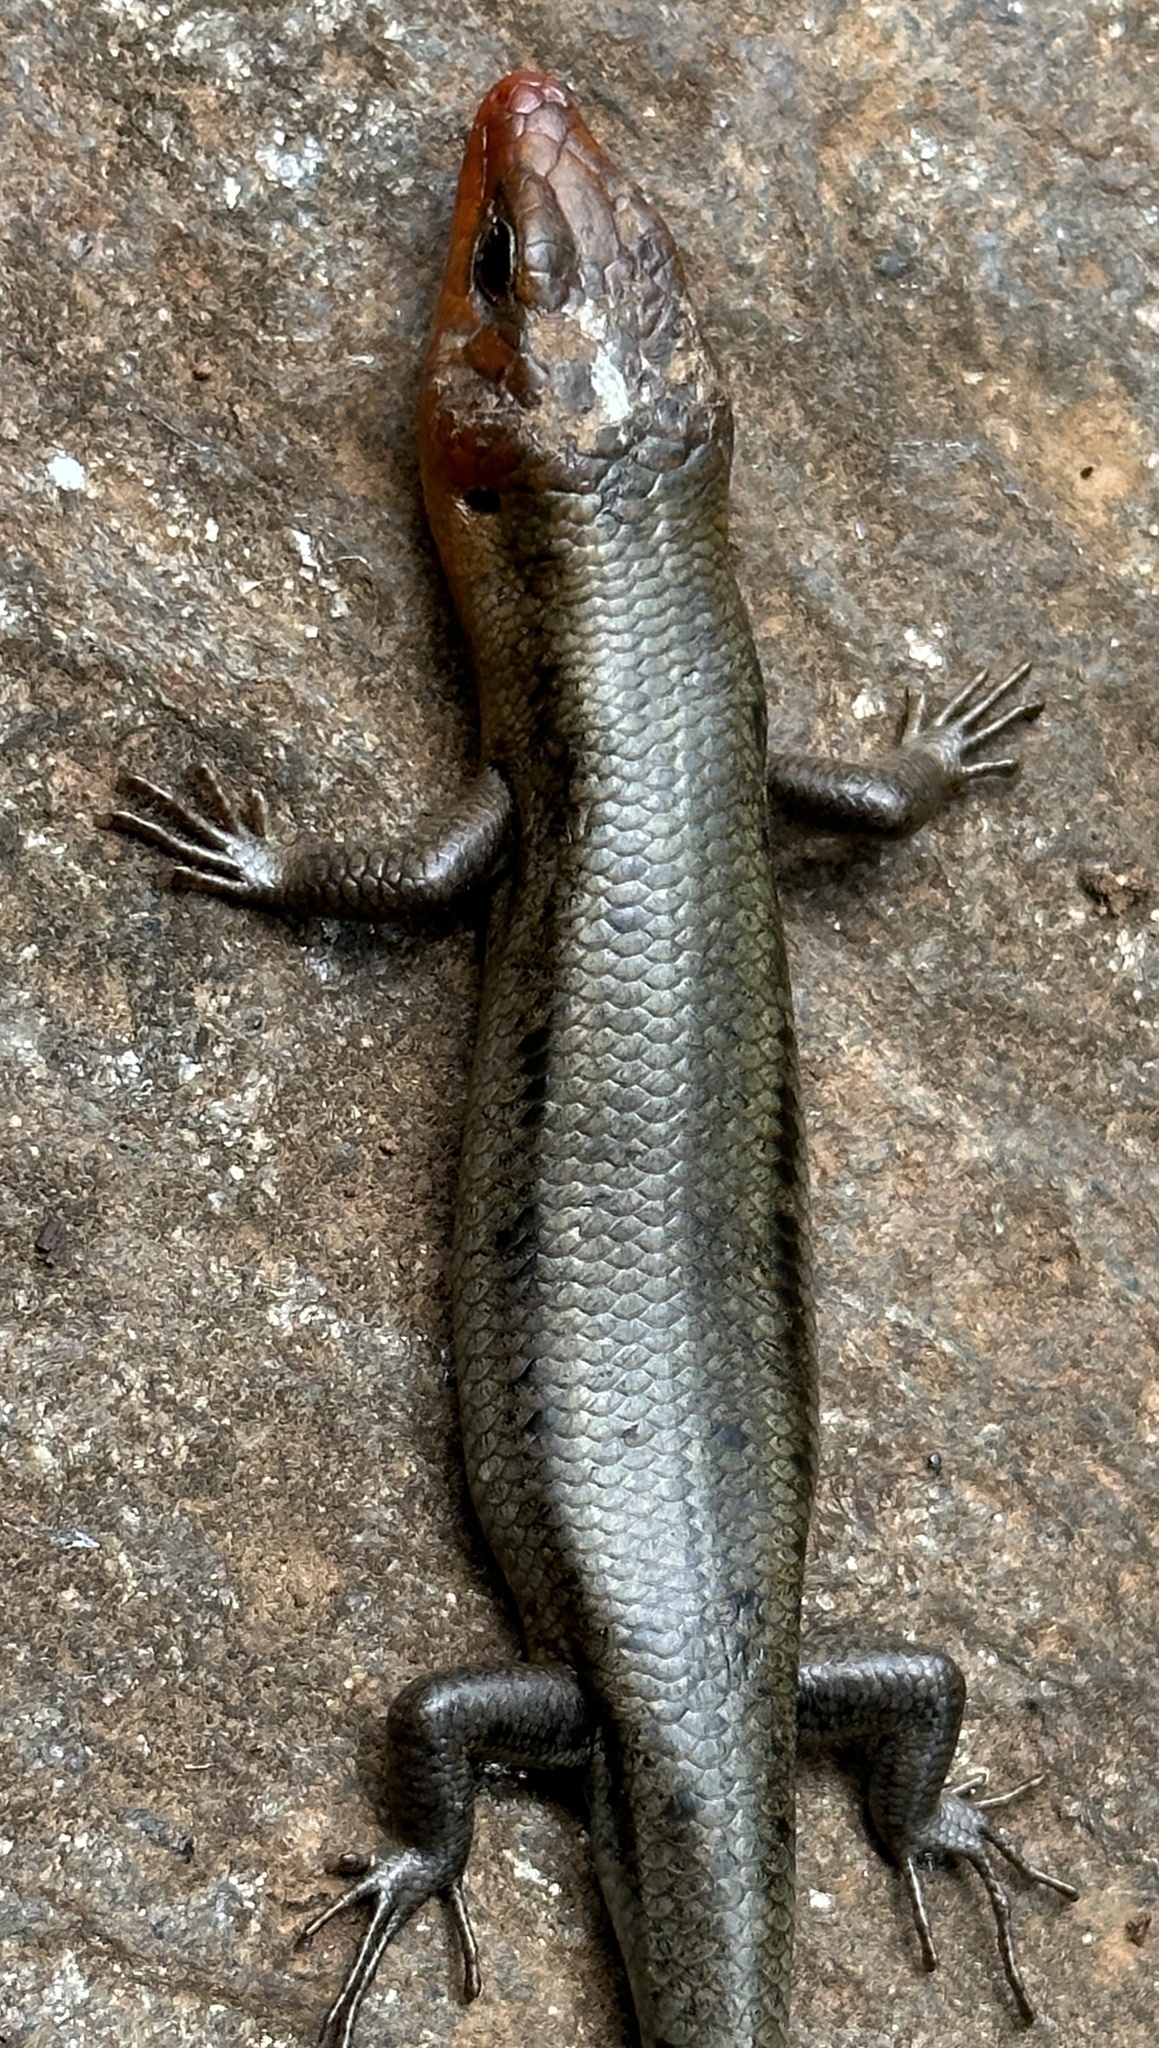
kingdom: Animalia
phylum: Chordata
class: Squamata
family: Scincidae
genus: Plestiodon
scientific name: Plestiodon fasciatus
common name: Five-lined skink
